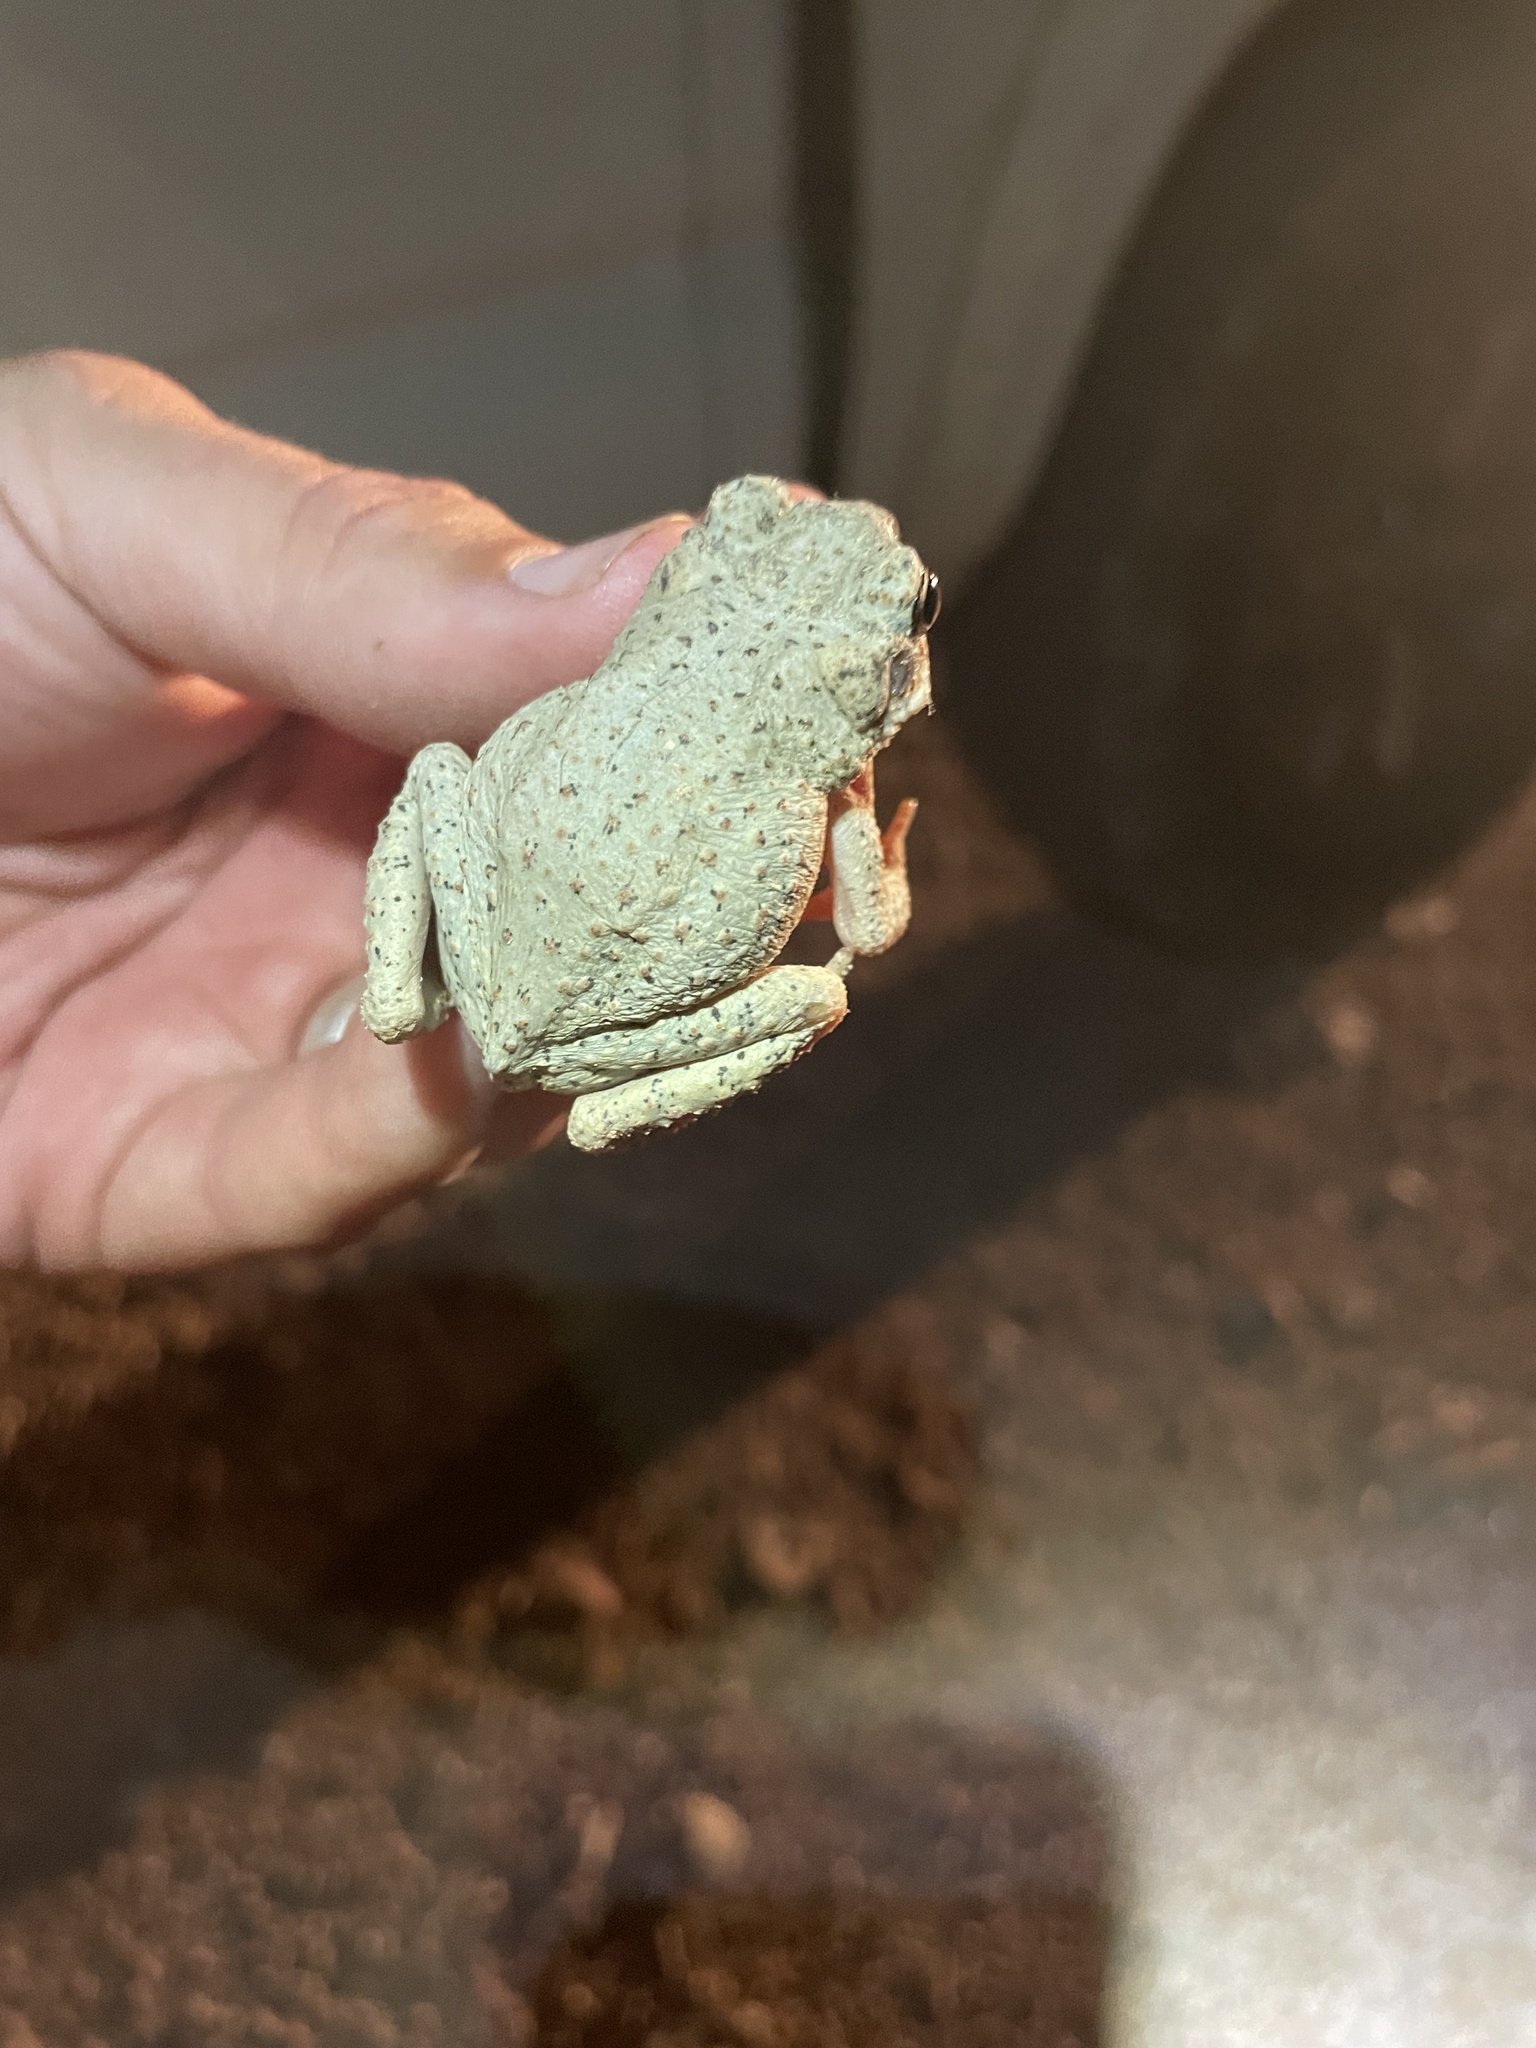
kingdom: Animalia
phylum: Chordata
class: Amphibia
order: Anura
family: Bufonidae
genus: Anaxyrus
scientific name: Anaxyrus punctatus
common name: Red-spotted toad
